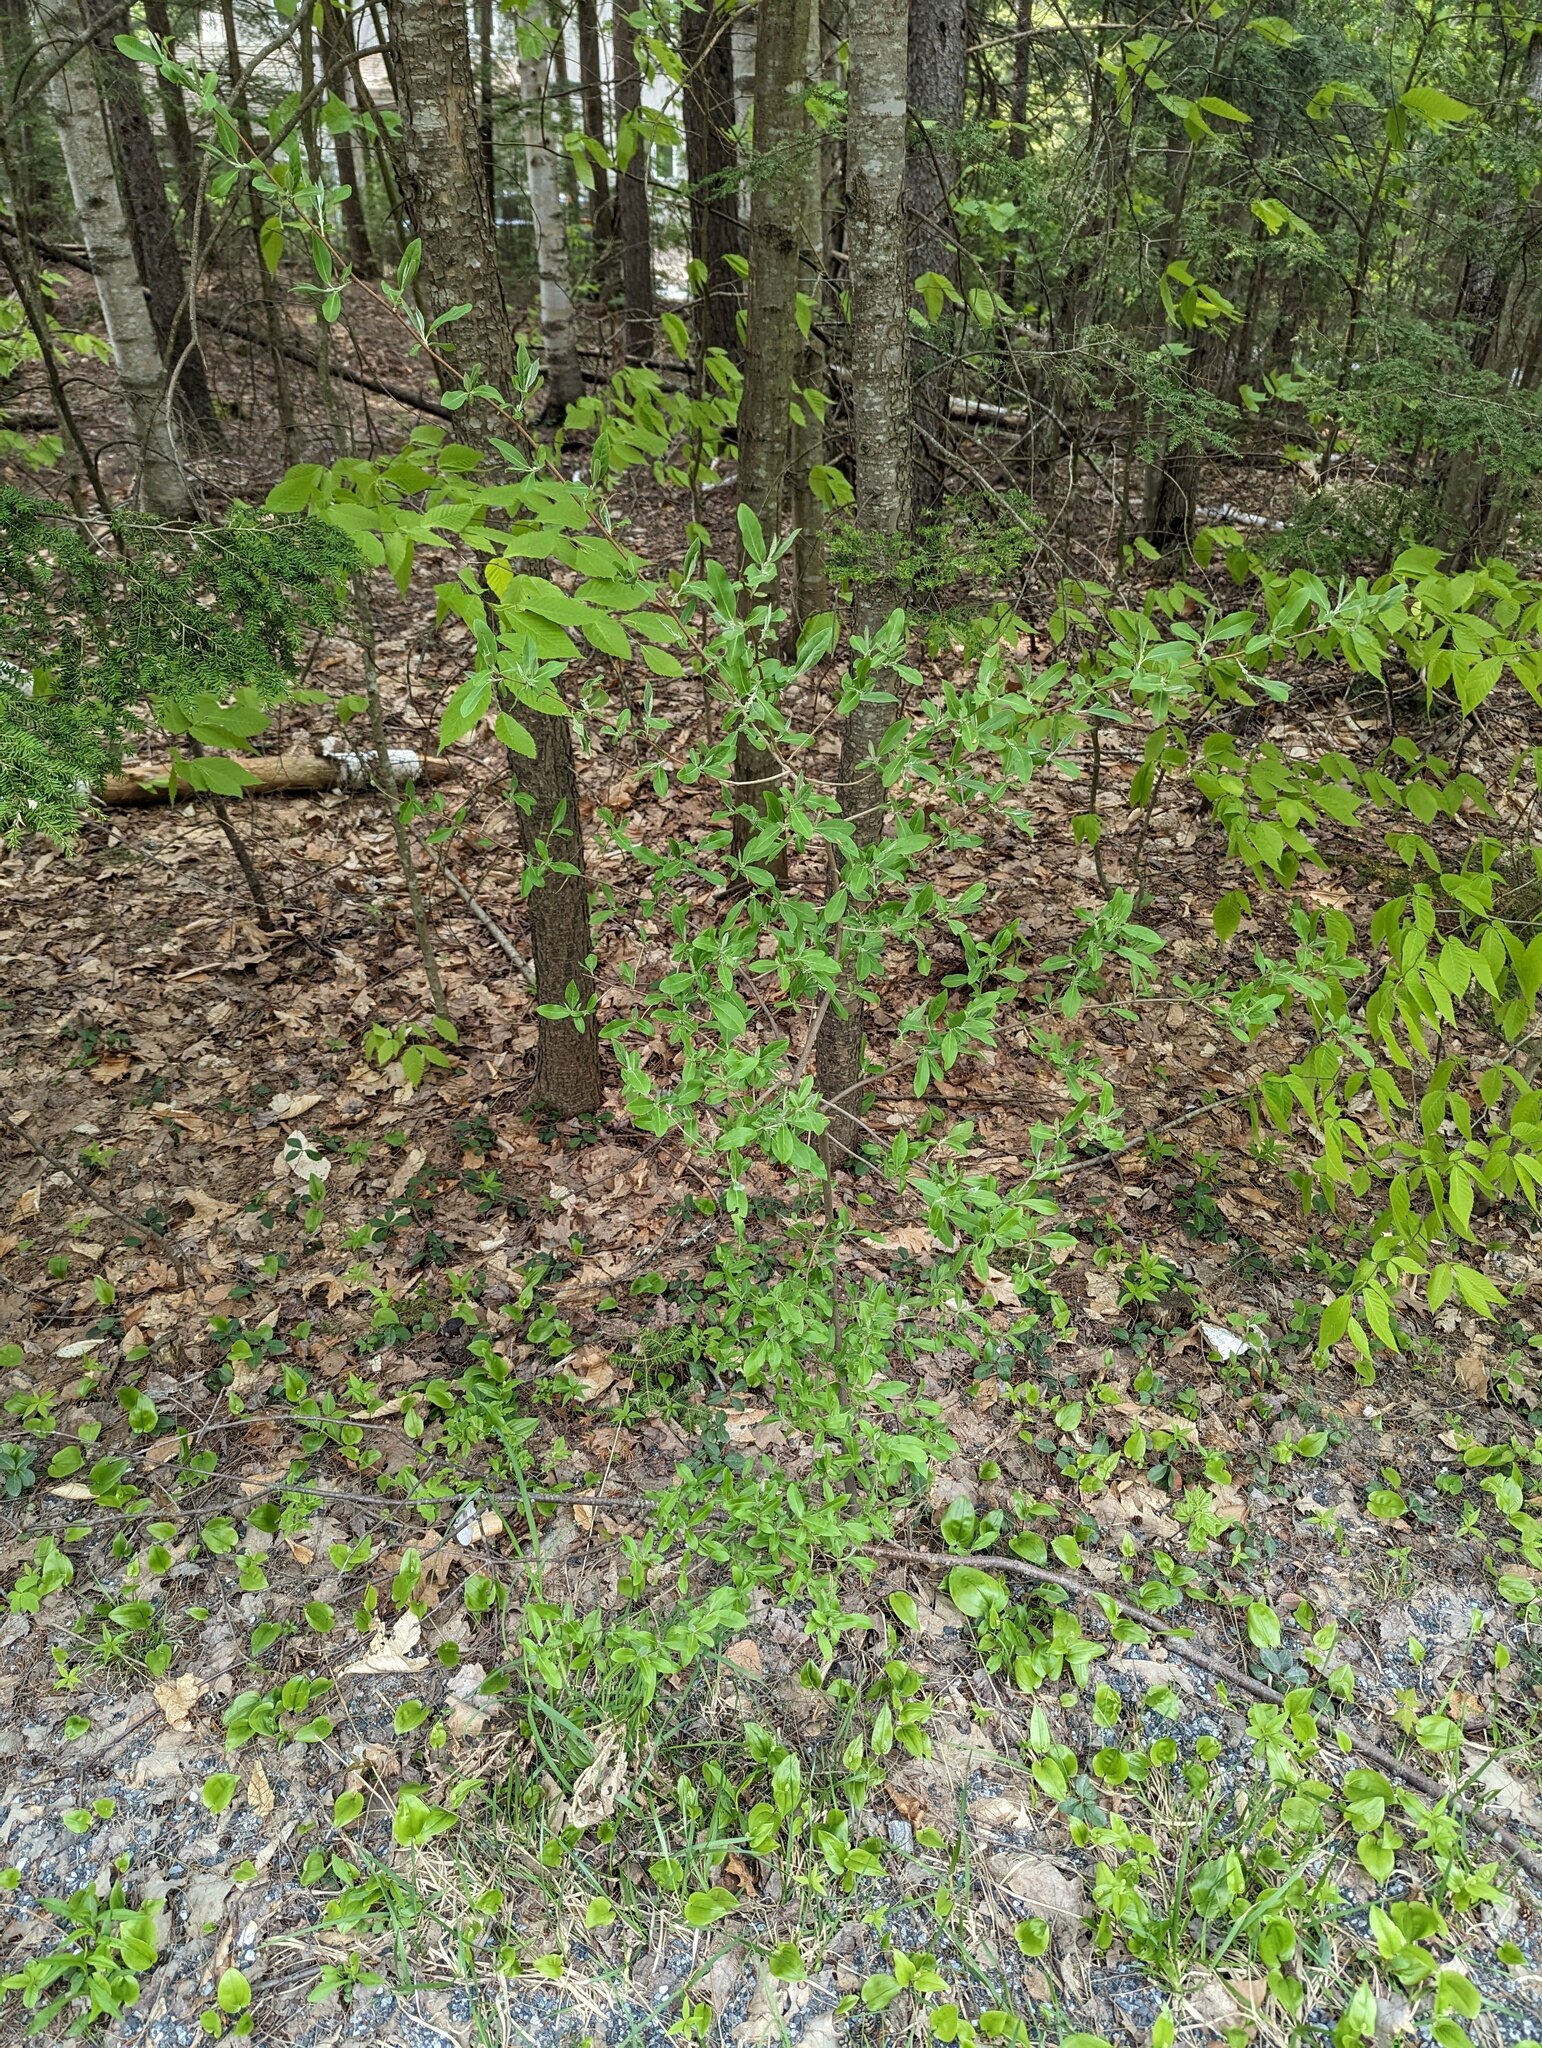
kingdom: Plantae
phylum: Tracheophyta
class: Magnoliopsida
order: Rosales
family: Elaeagnaceae
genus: Elaeagnus
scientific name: Elaeagnus umbellata
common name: Autumn olive
